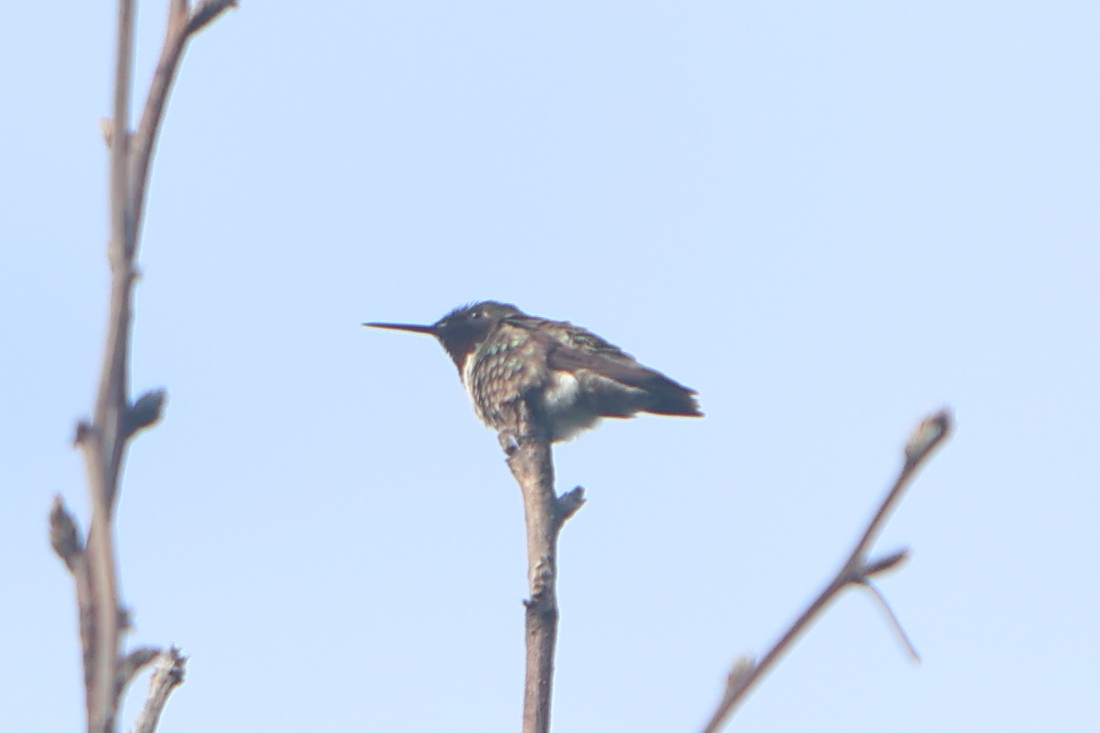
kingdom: Animalia
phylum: Chordata
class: Aves
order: Apodiformes
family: Trochilidae
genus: Archilochus
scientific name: Archilochus colubris
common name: Ruby-throated hummingbird
